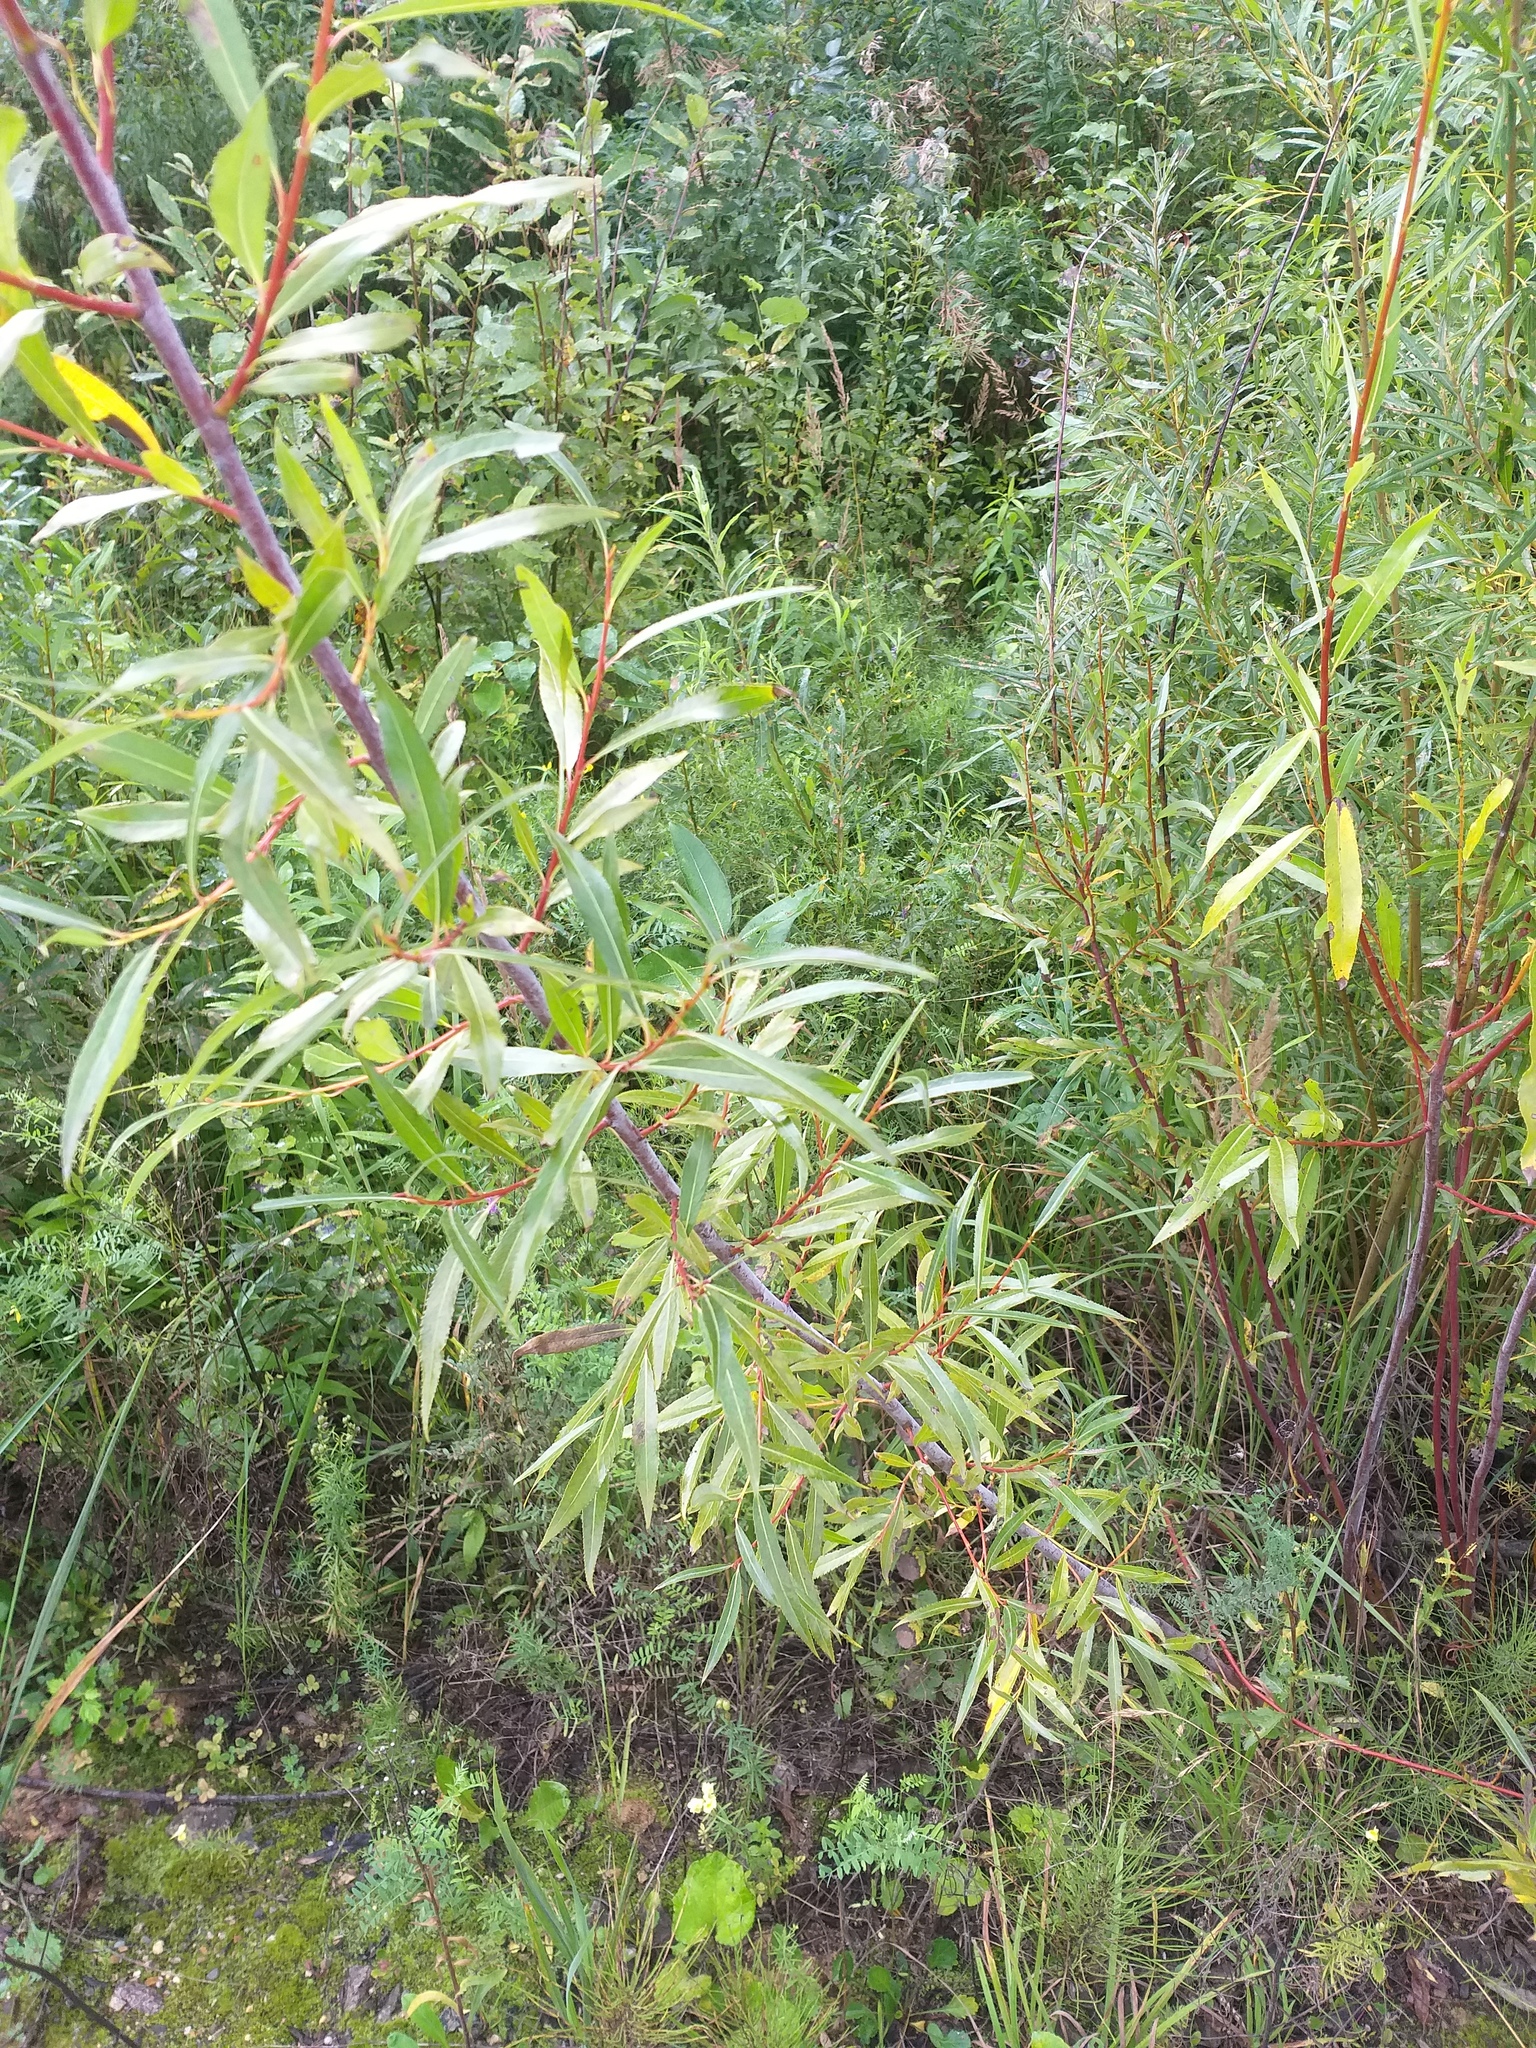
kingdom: Plantae
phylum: Tracheophyta
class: Magnoliopsida
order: Malpighiales
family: Salicaceae
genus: Salix
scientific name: Salix acutifolia
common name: Siberian violet-willow
